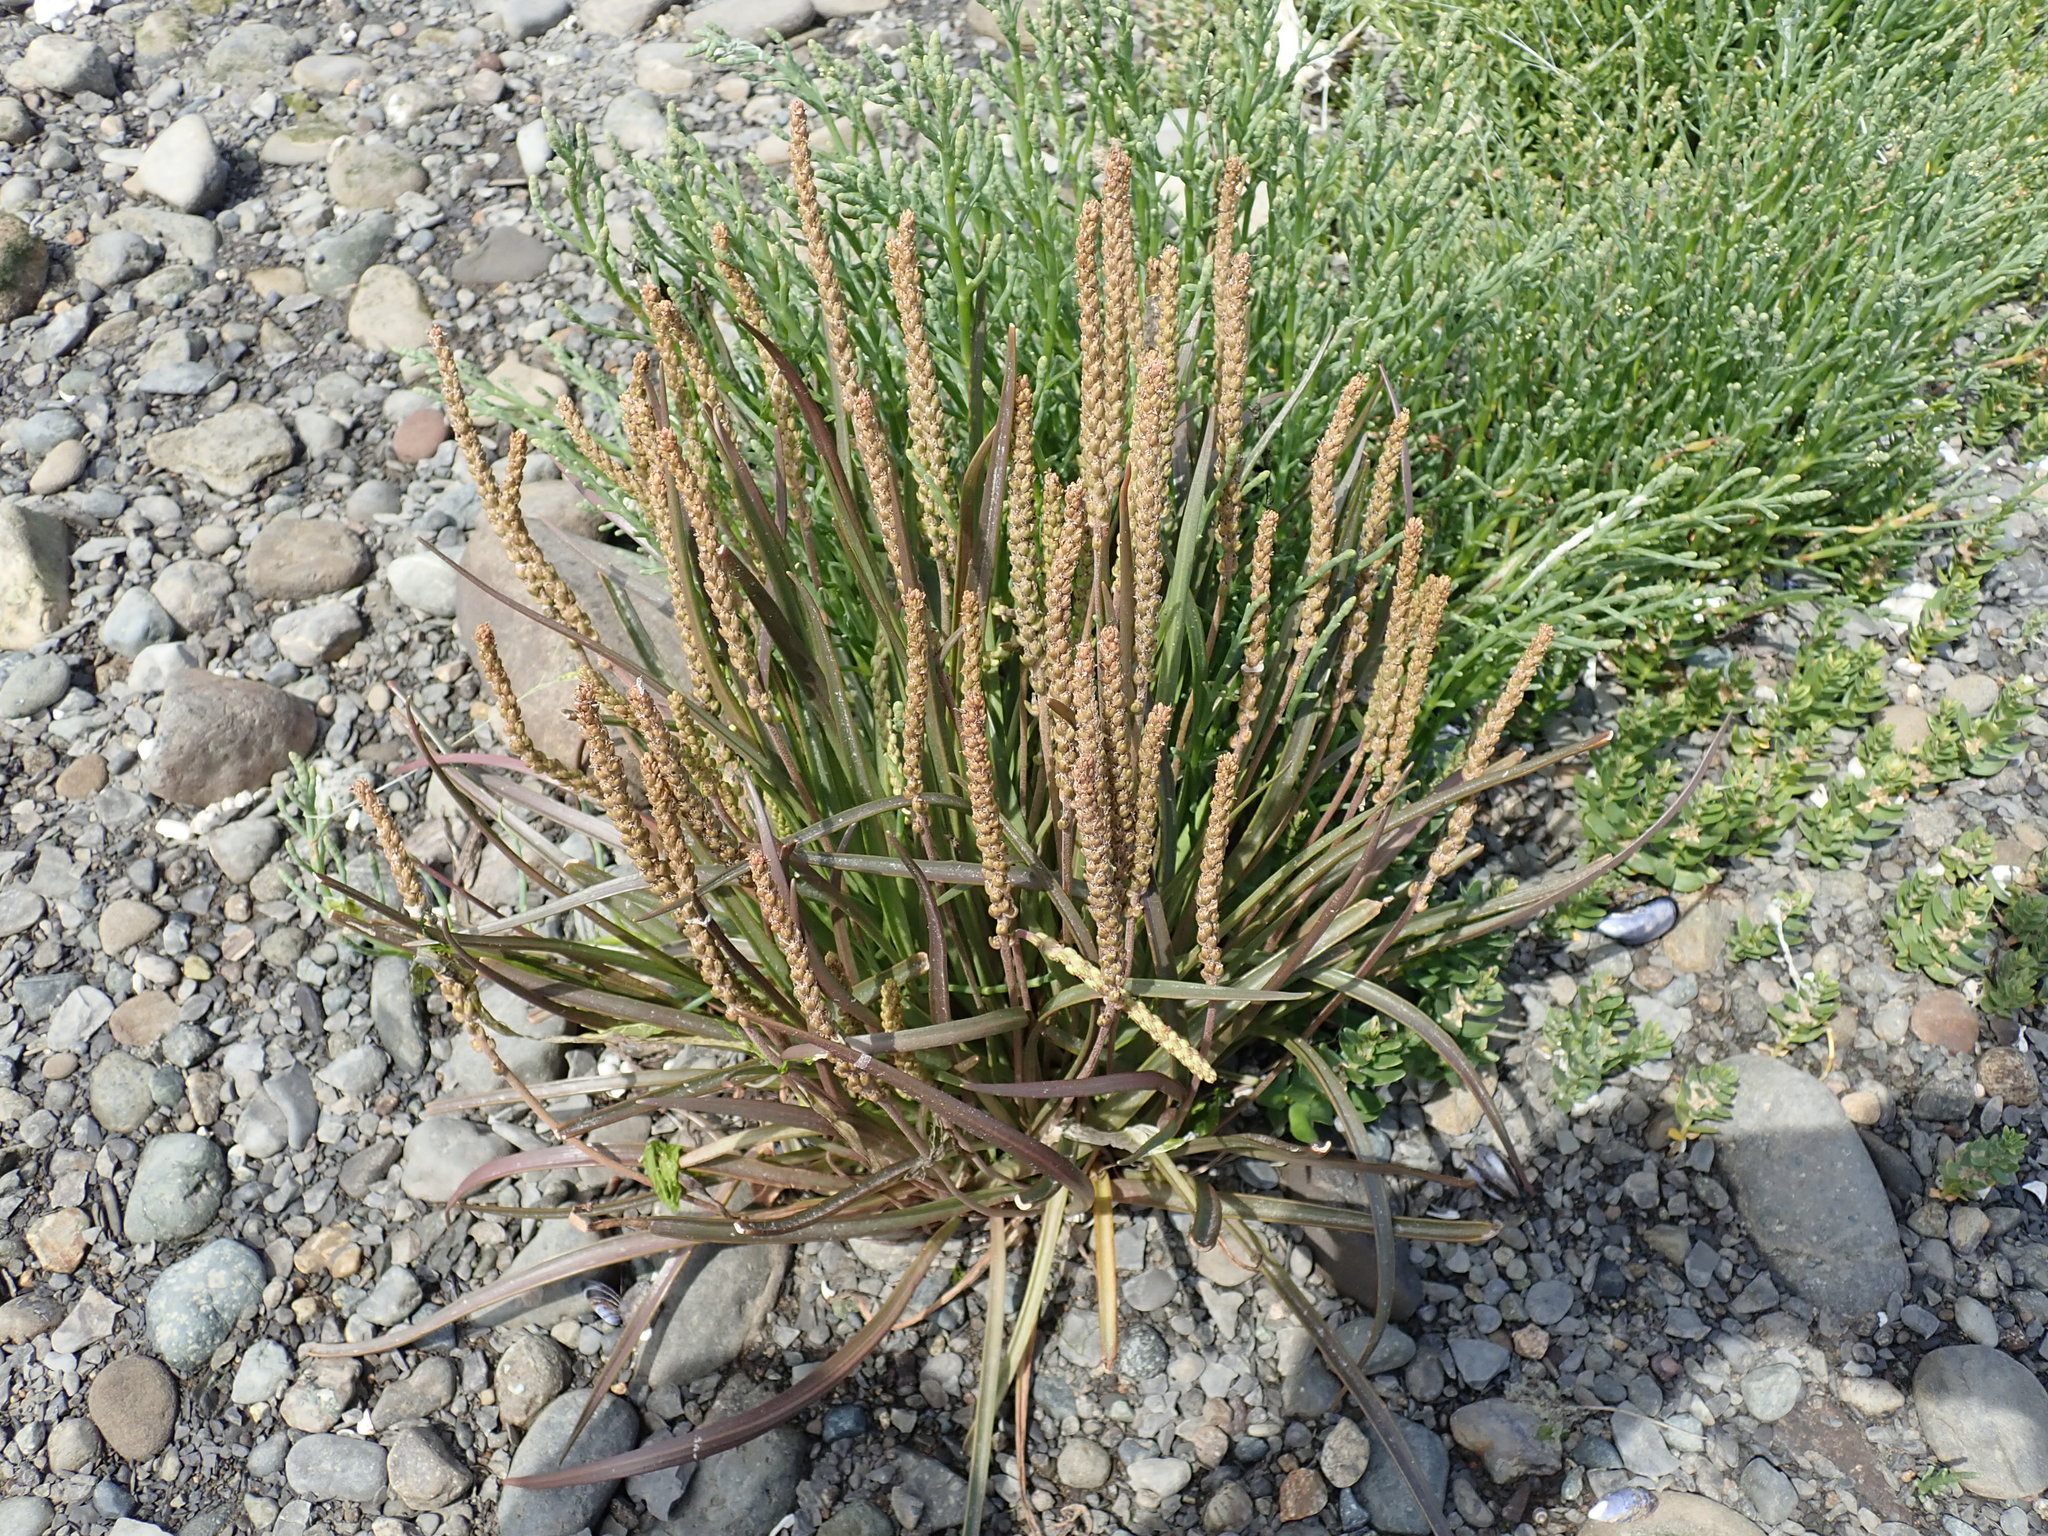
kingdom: Plantae
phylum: Tracheophyta
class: Magnoliopsida
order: Lamiales
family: Plantaginaceae
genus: Plantago
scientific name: Plantago maritima
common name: Sea plantain
